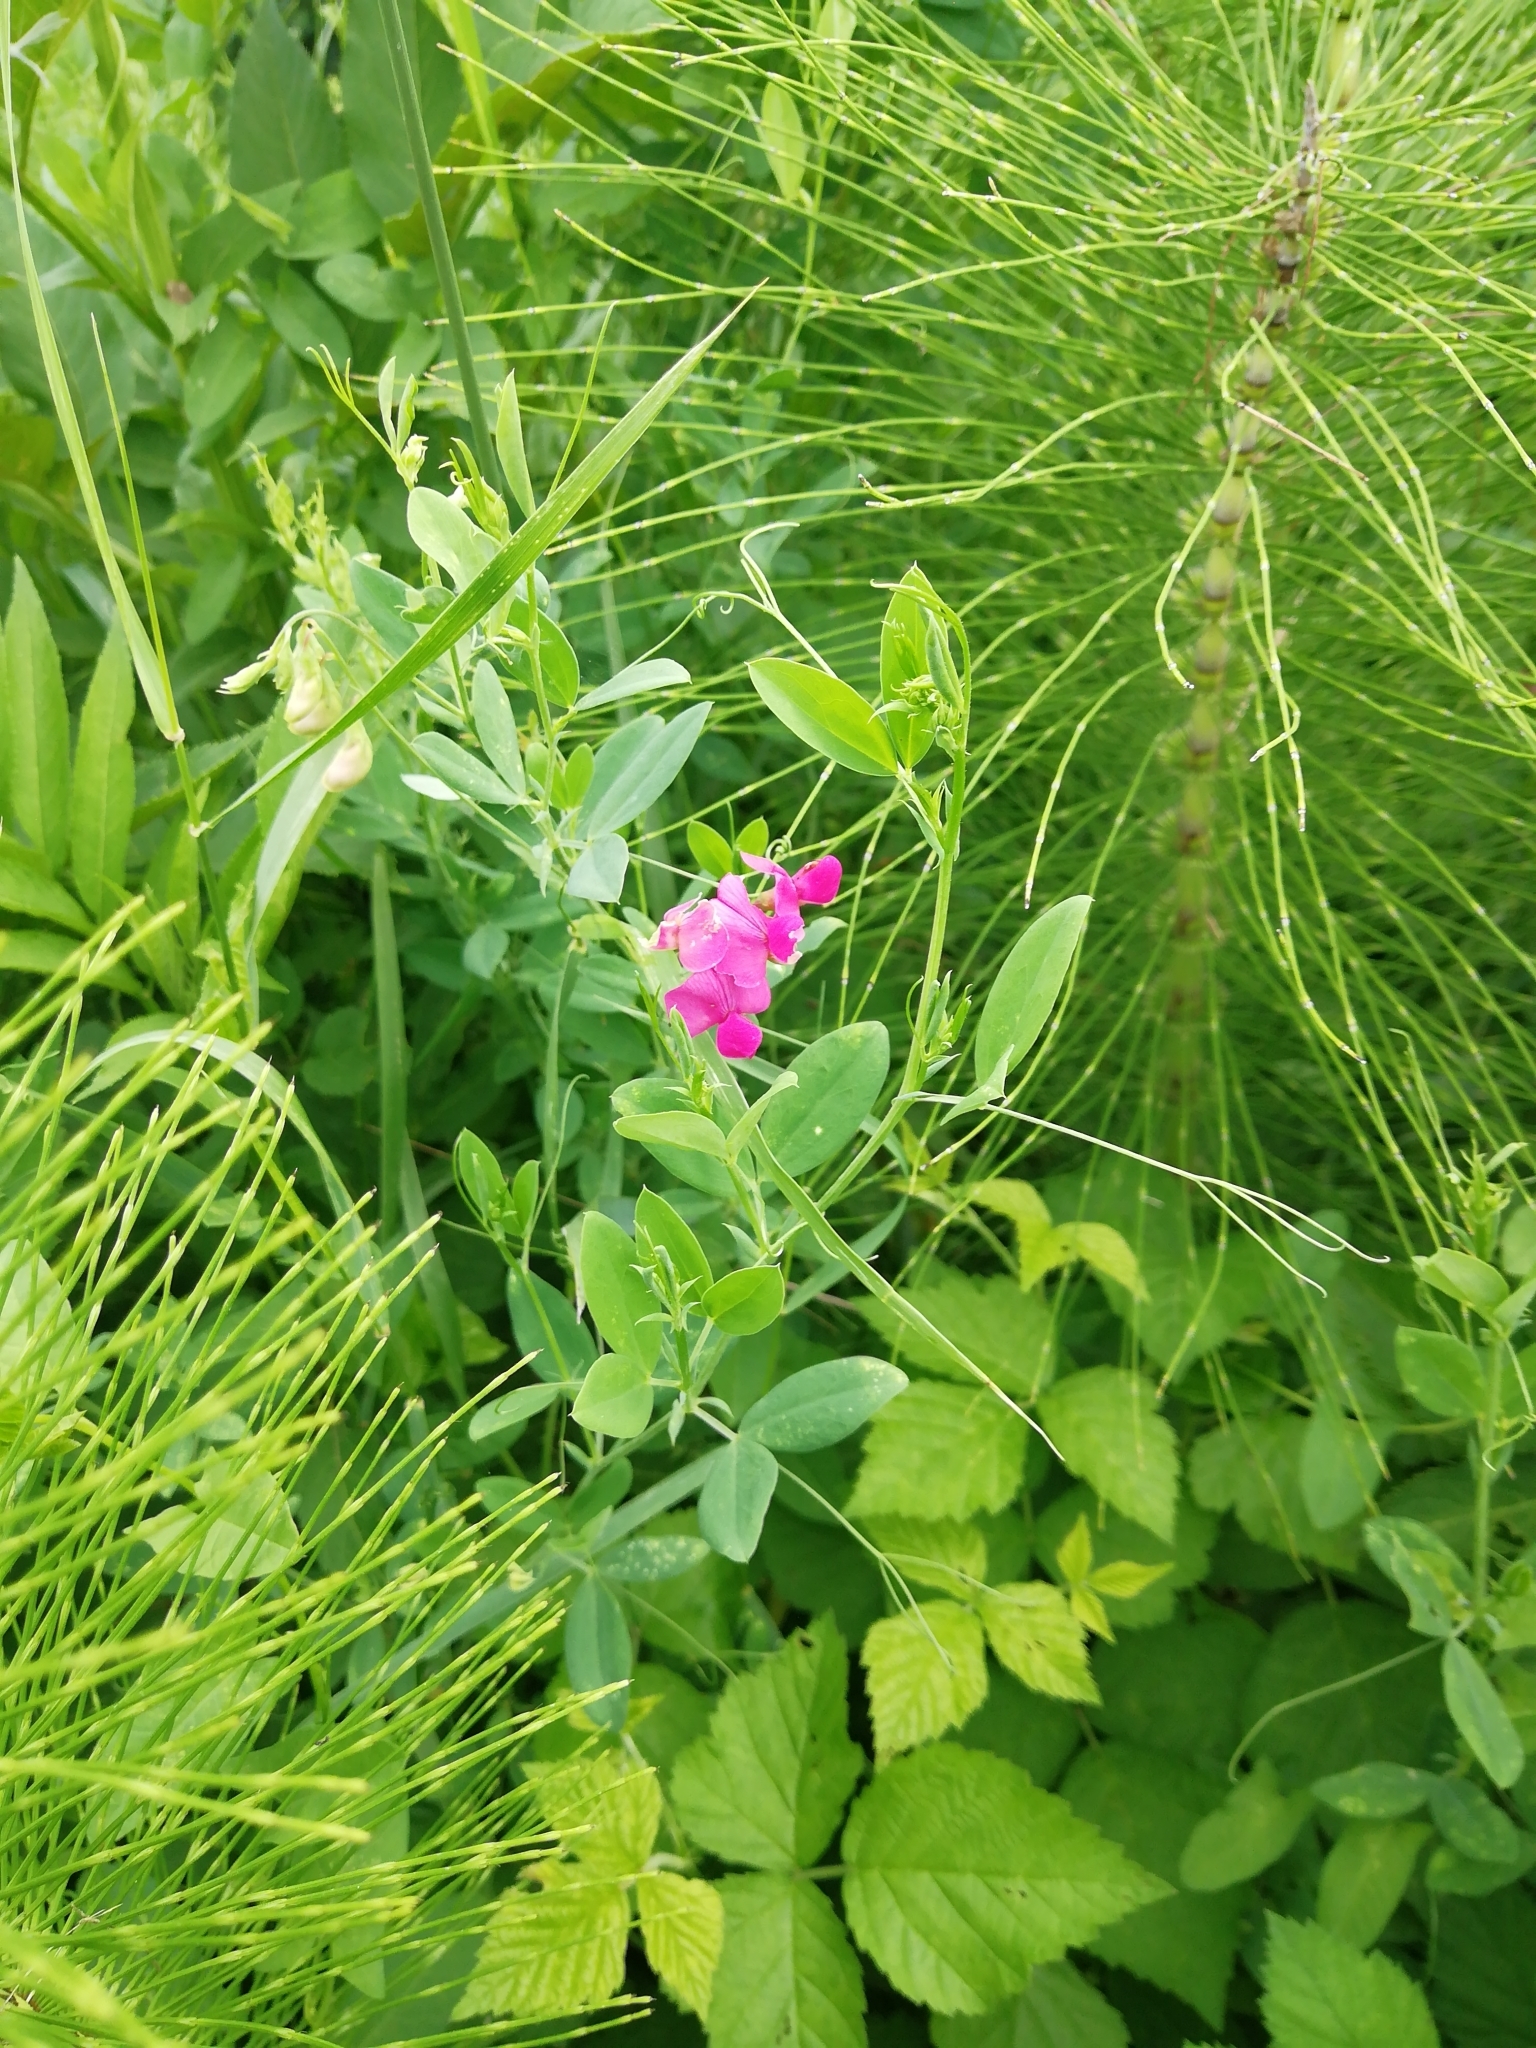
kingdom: Plantae
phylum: Tracheophyta
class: Magnoliopsida
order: Fabales
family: Fabaceae
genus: Lathyrus
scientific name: Lathyrus tuberosus
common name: Tuberous pea
